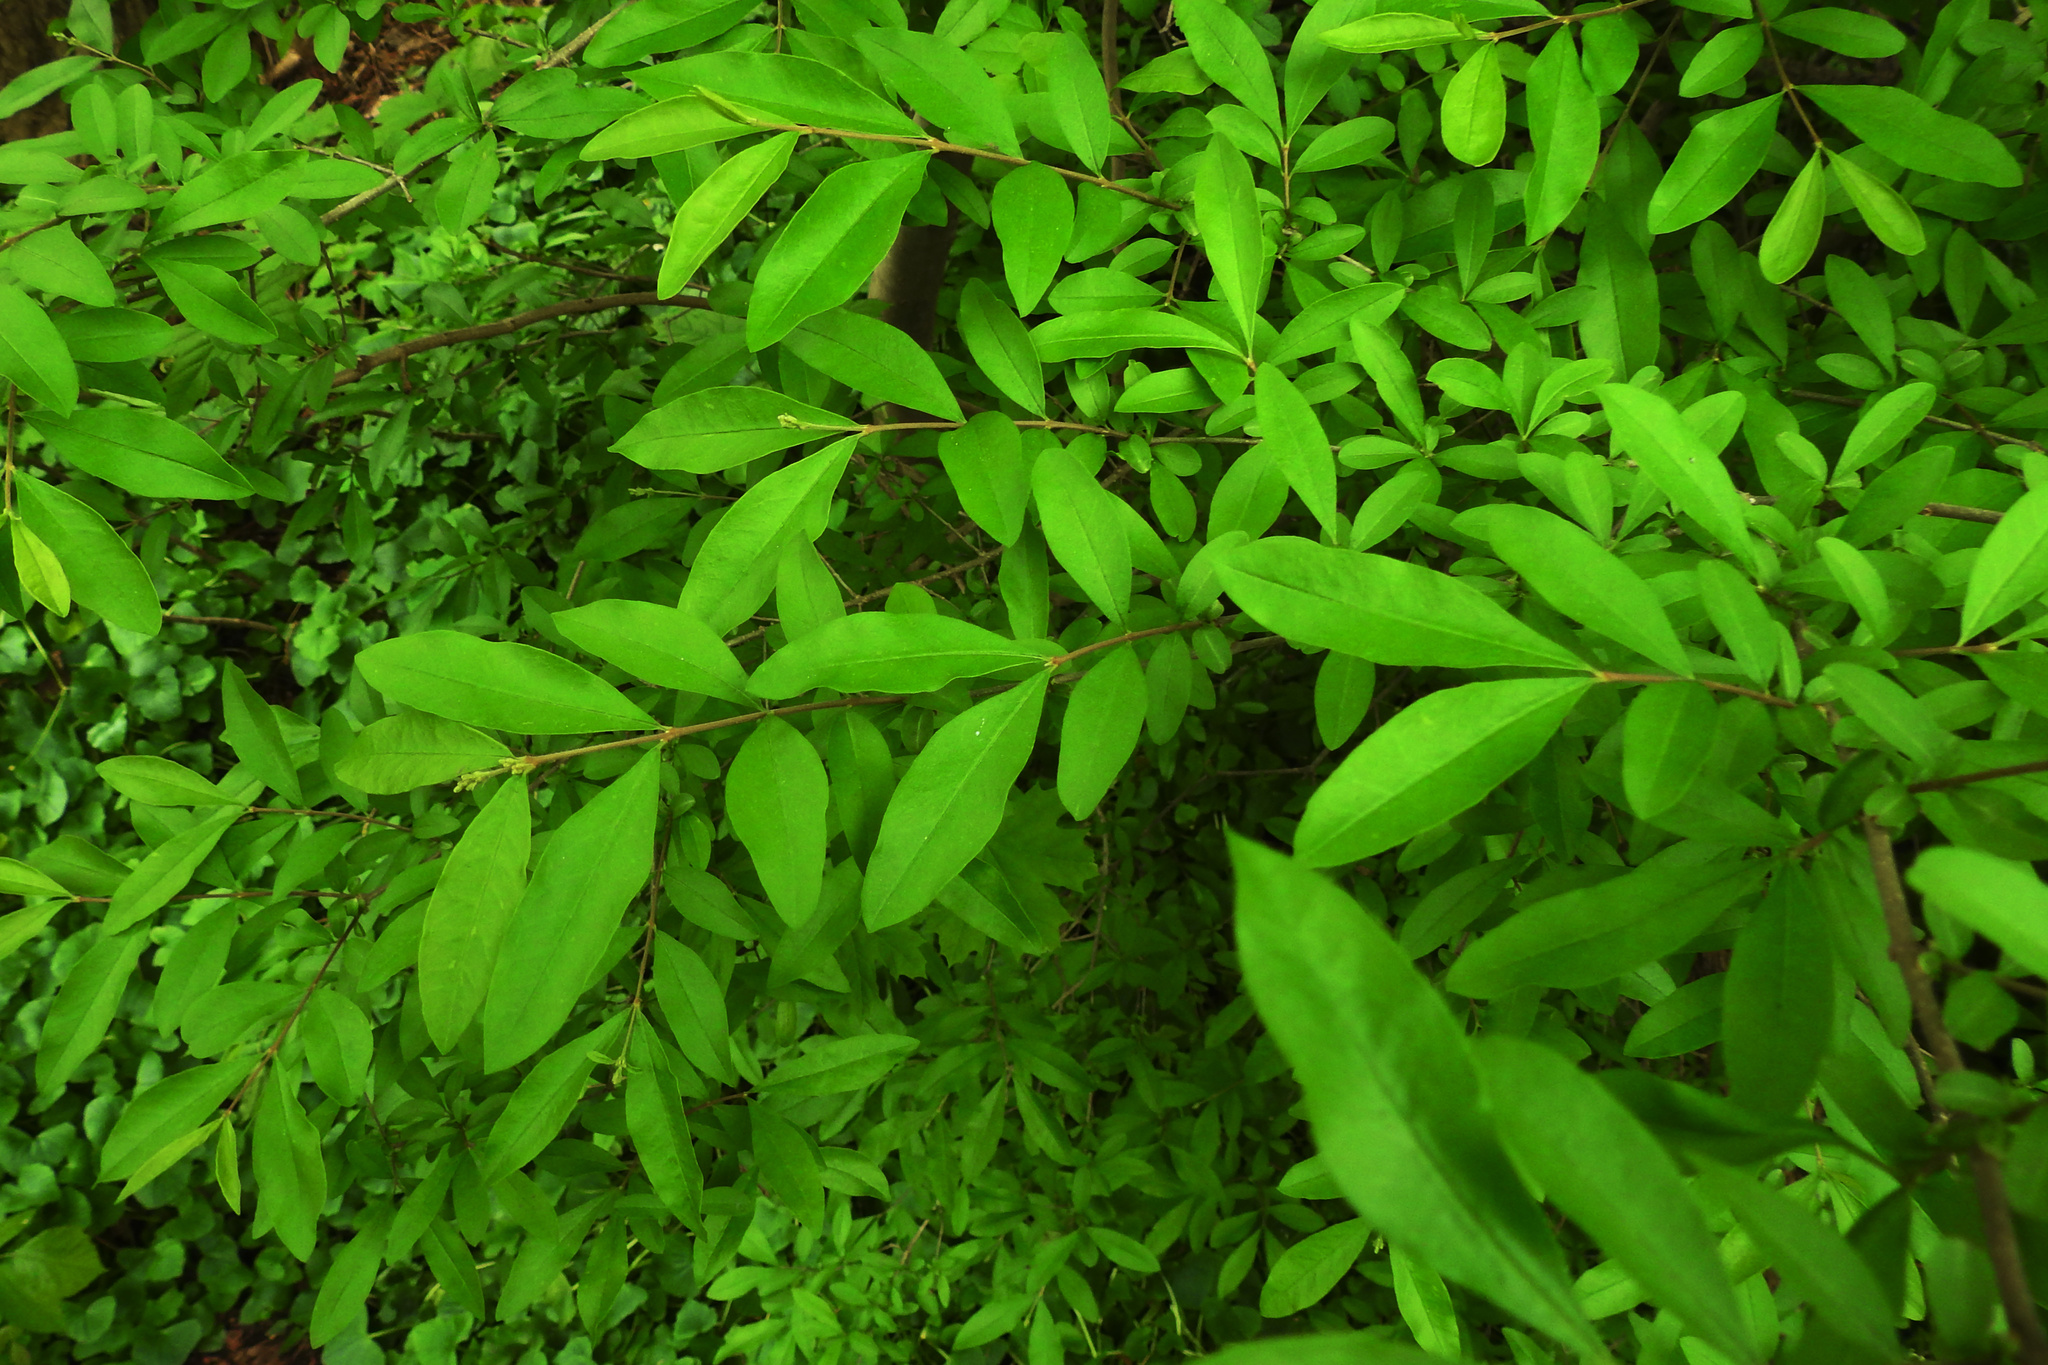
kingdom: Plantae
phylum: Tracheophyta
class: Magnoliopsida
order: Lamiales
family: Oleaceae
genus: Ligustrum
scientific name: Ligustrum obtusifolium
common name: Border privet
